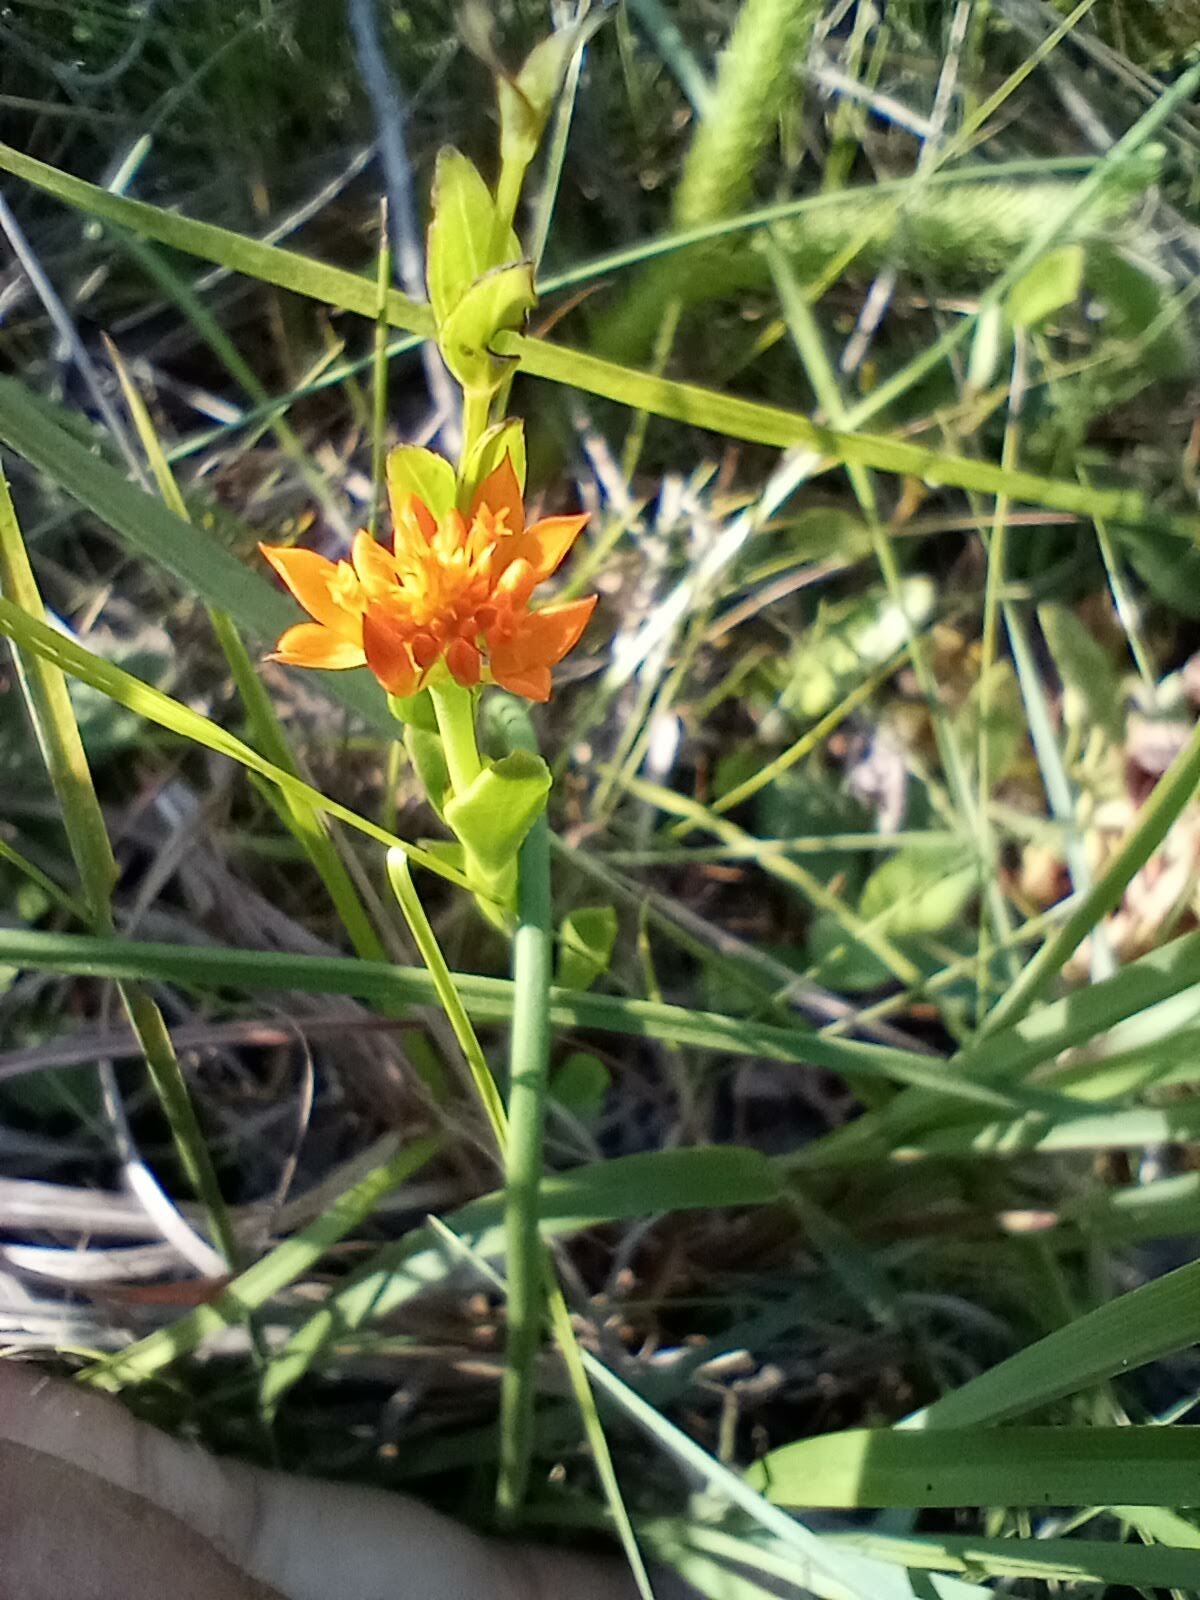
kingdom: Plantae
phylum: Tracheophyta
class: Magnoliopsida
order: Fabales
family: Polygalaceae
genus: Polygala
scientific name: Polygala lutea
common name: Orange milkwort
